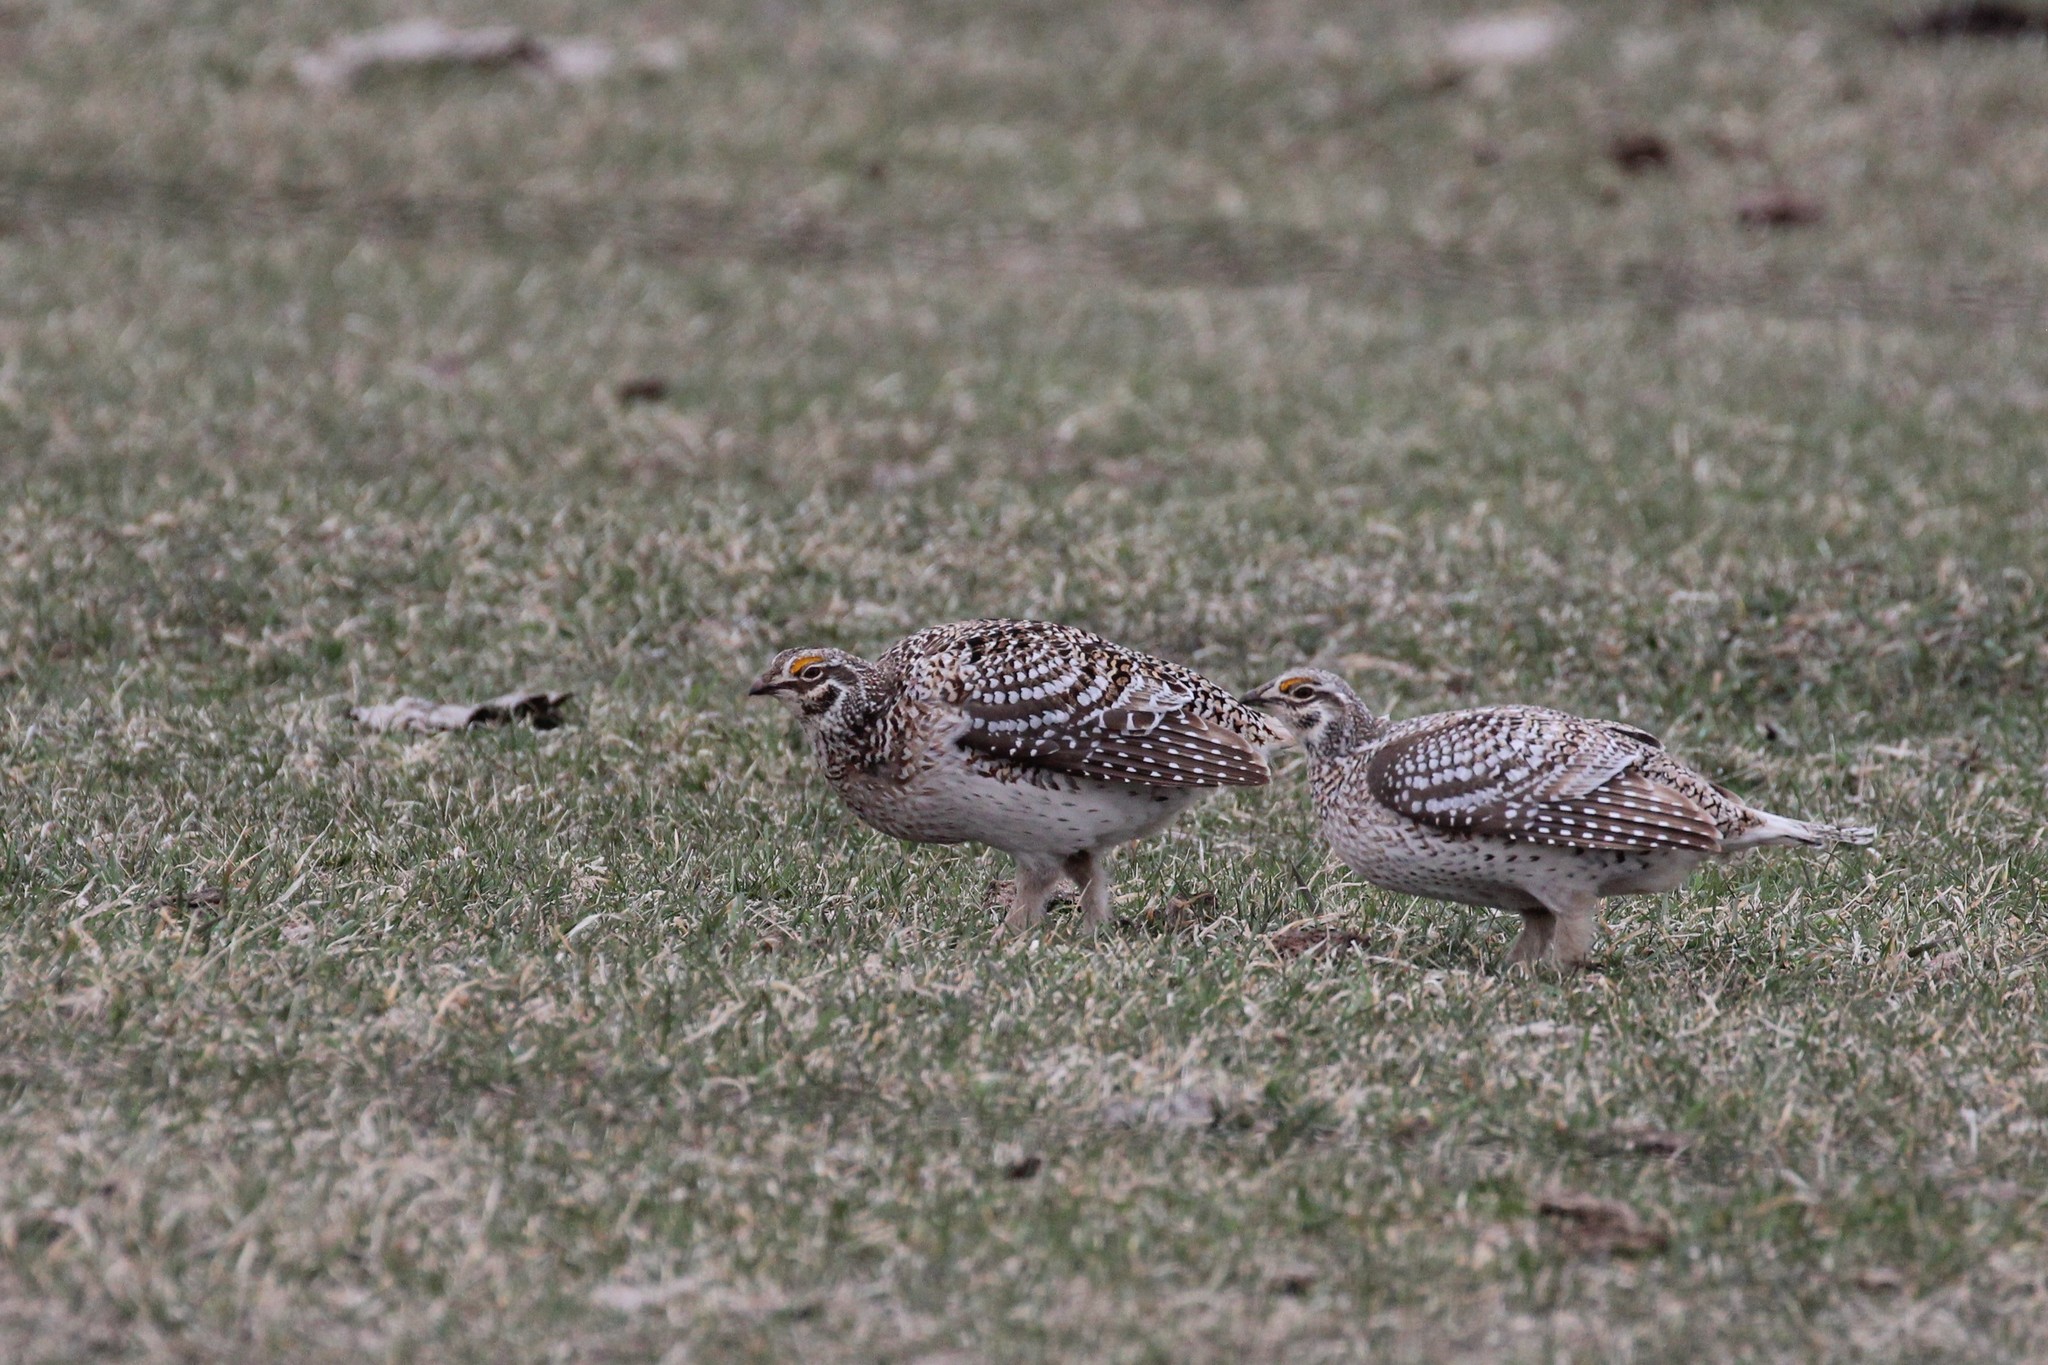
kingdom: Animalia
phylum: Chordata
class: Aves
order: Galliformes
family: Phasianidae
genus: Tympanuchus
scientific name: Tympanuchus phasianellus
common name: Sharp-tailed grouse
